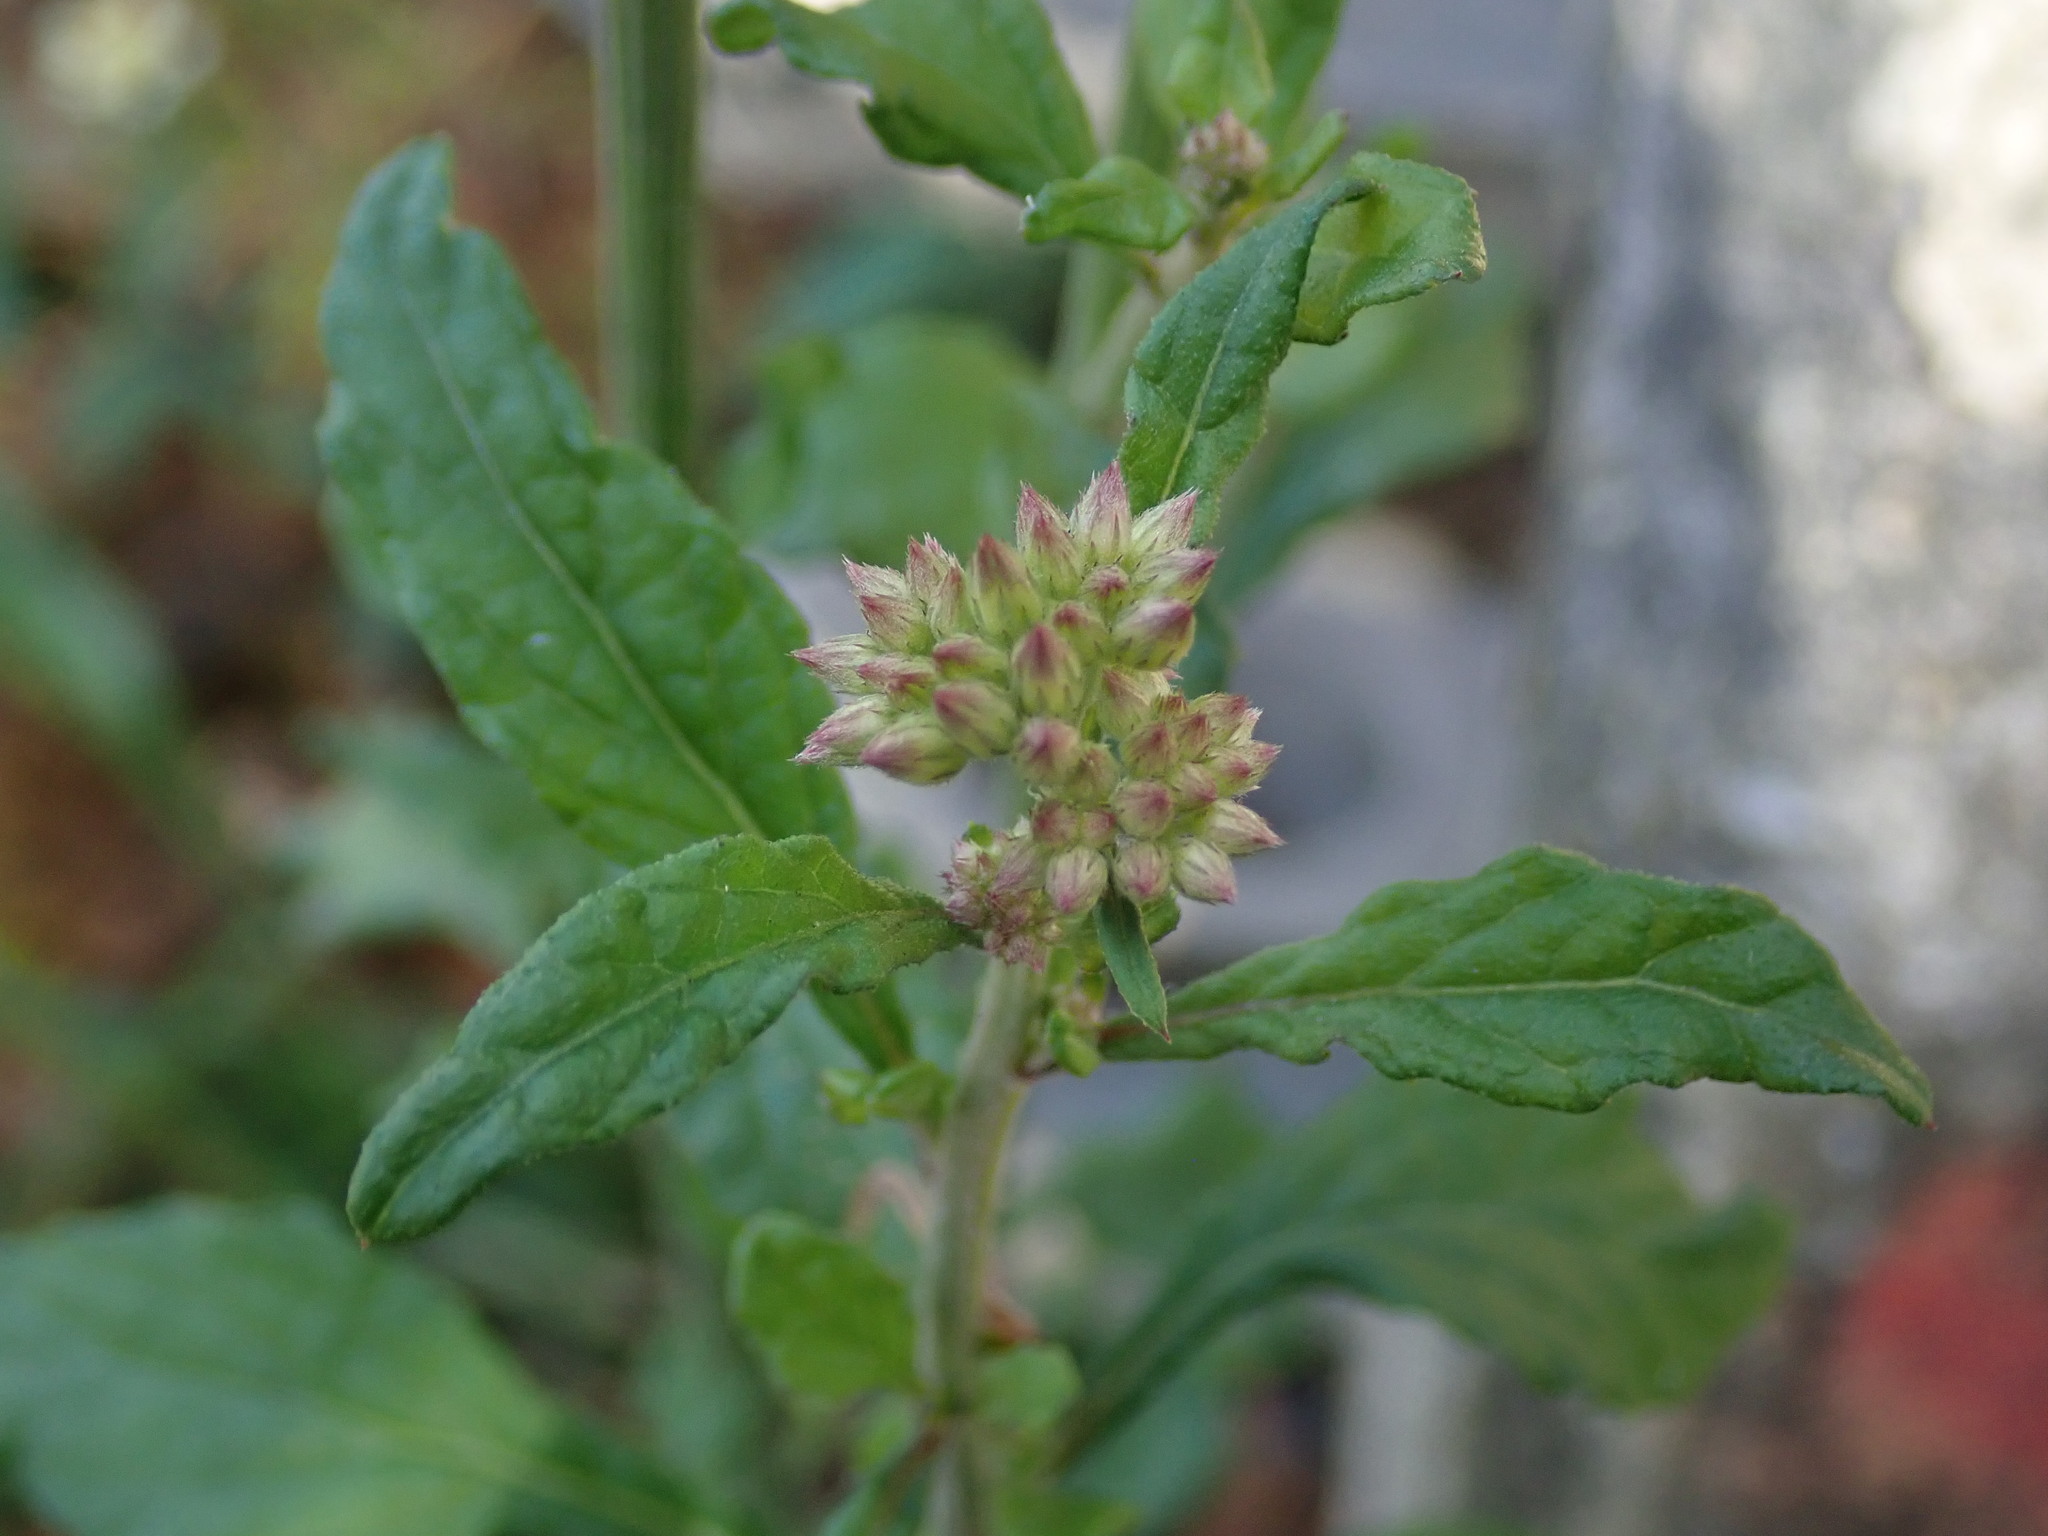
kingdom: Plantae
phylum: Tracheophyta
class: Magnoliopsida
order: Asterales
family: Asteraceae
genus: Cyanthillium
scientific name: Cyanthillium cinereum
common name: Little ironweed
